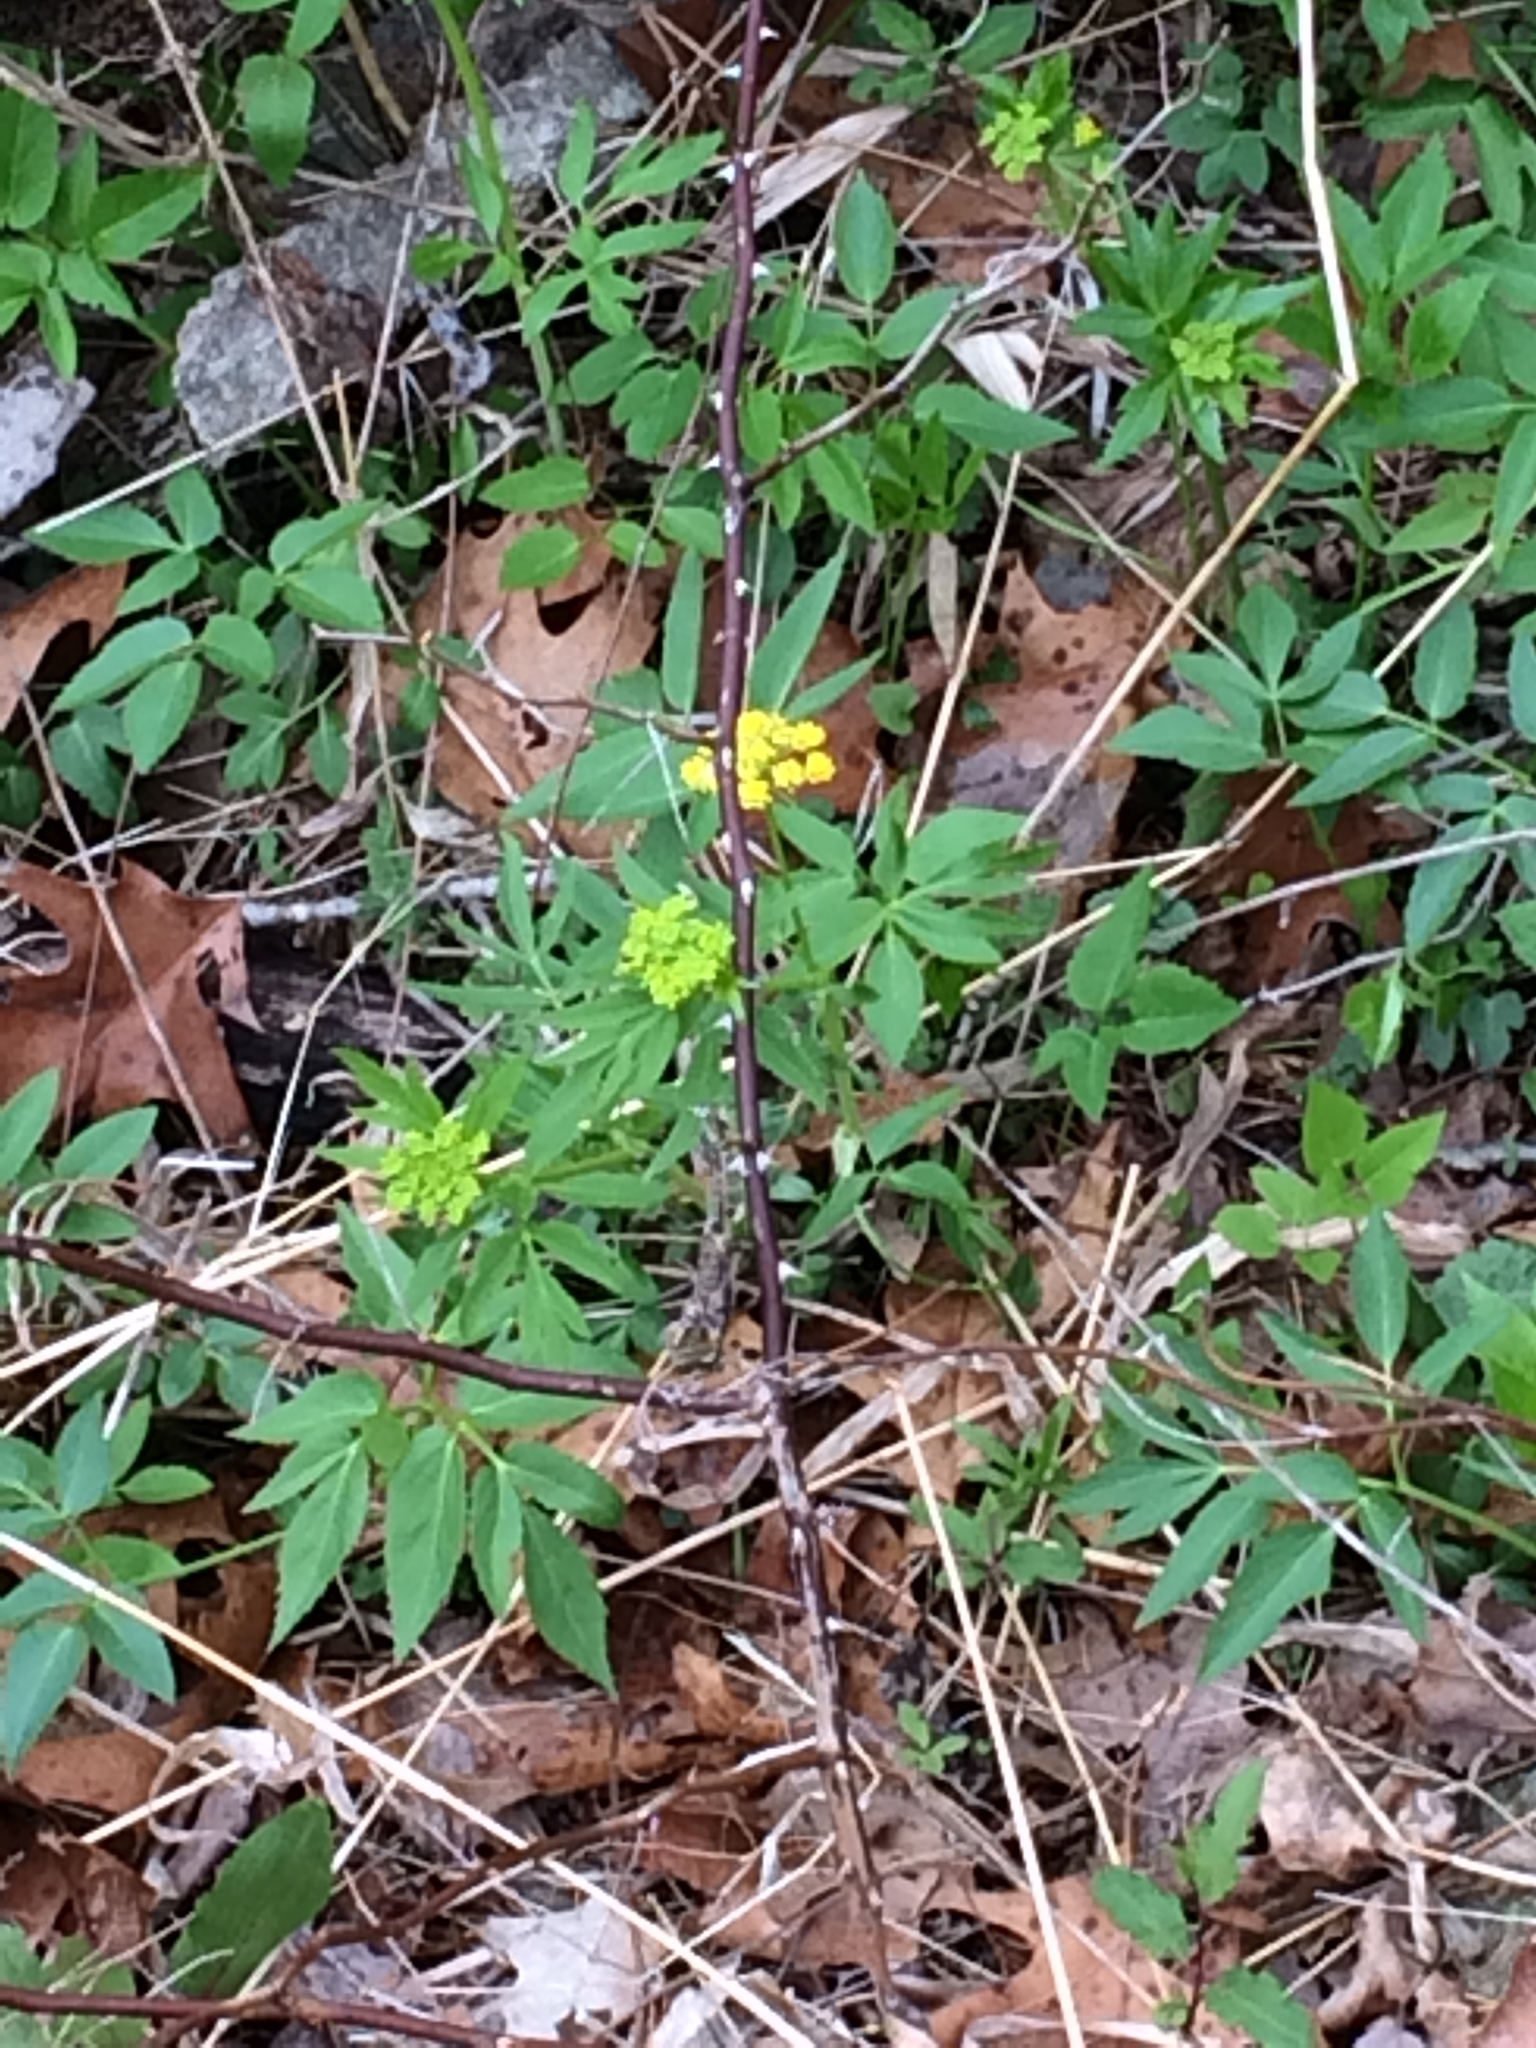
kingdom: Plantae
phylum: Tracheophyta
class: Magnoliopsida
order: Apiales
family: Apiaceae
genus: Zizia
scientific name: Zizia aurea
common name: Golden alexanders
